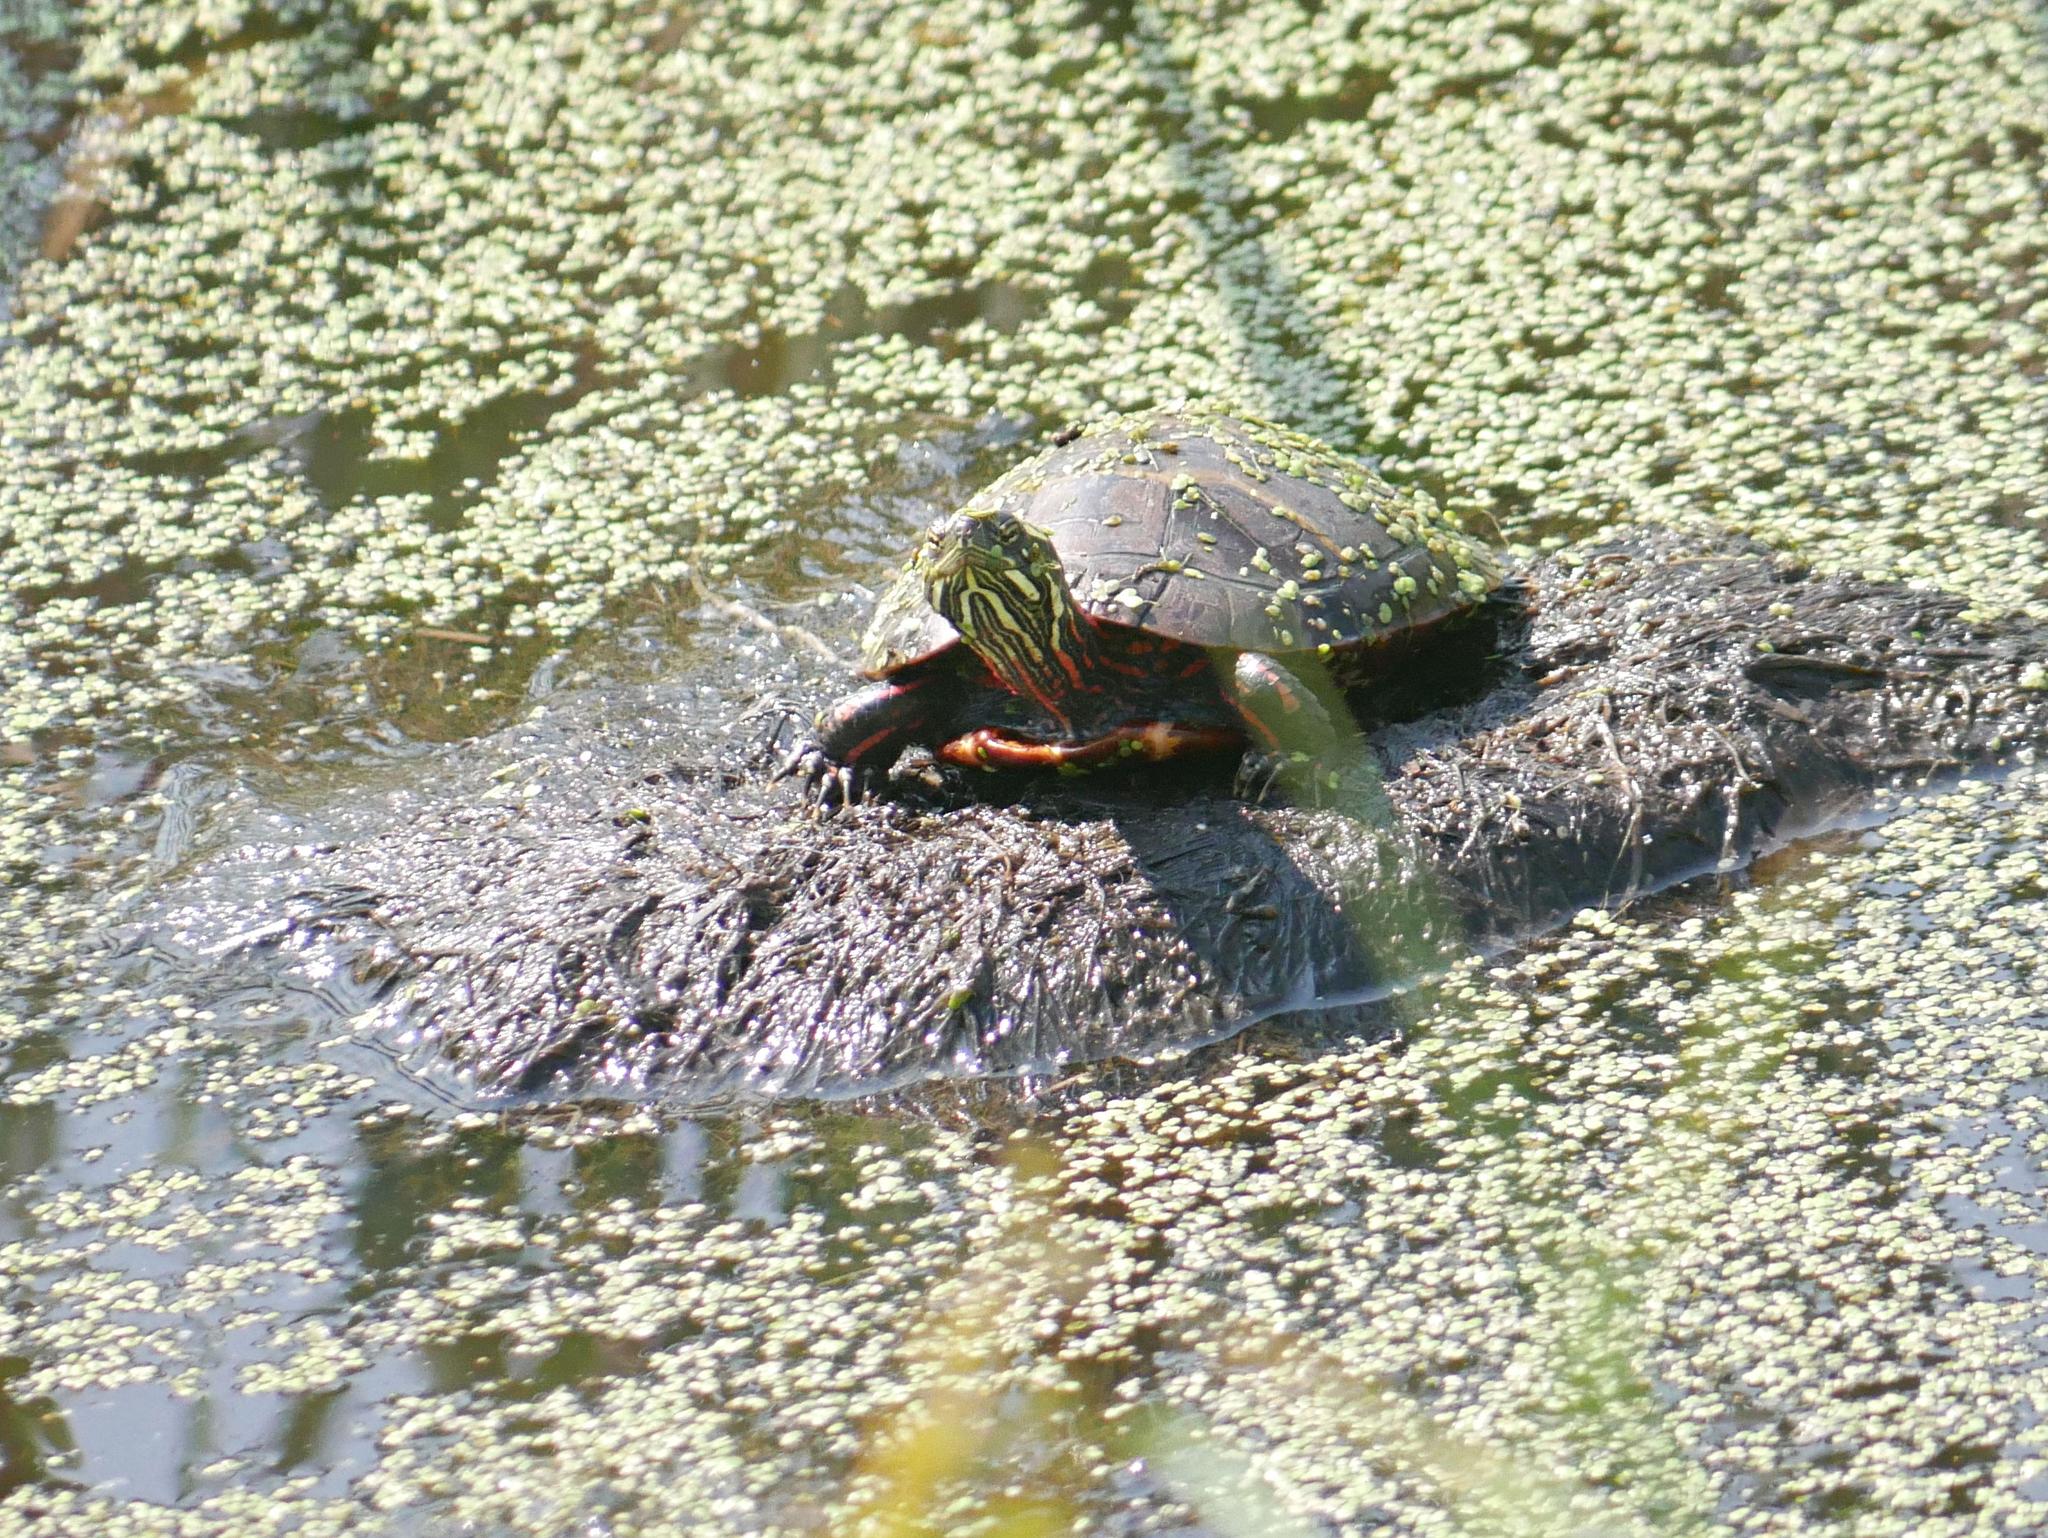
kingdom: Animalia
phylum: Chordata
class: Testudines
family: Emydidae
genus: Chrysemys
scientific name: Chrysemys picta
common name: Painted turtle
